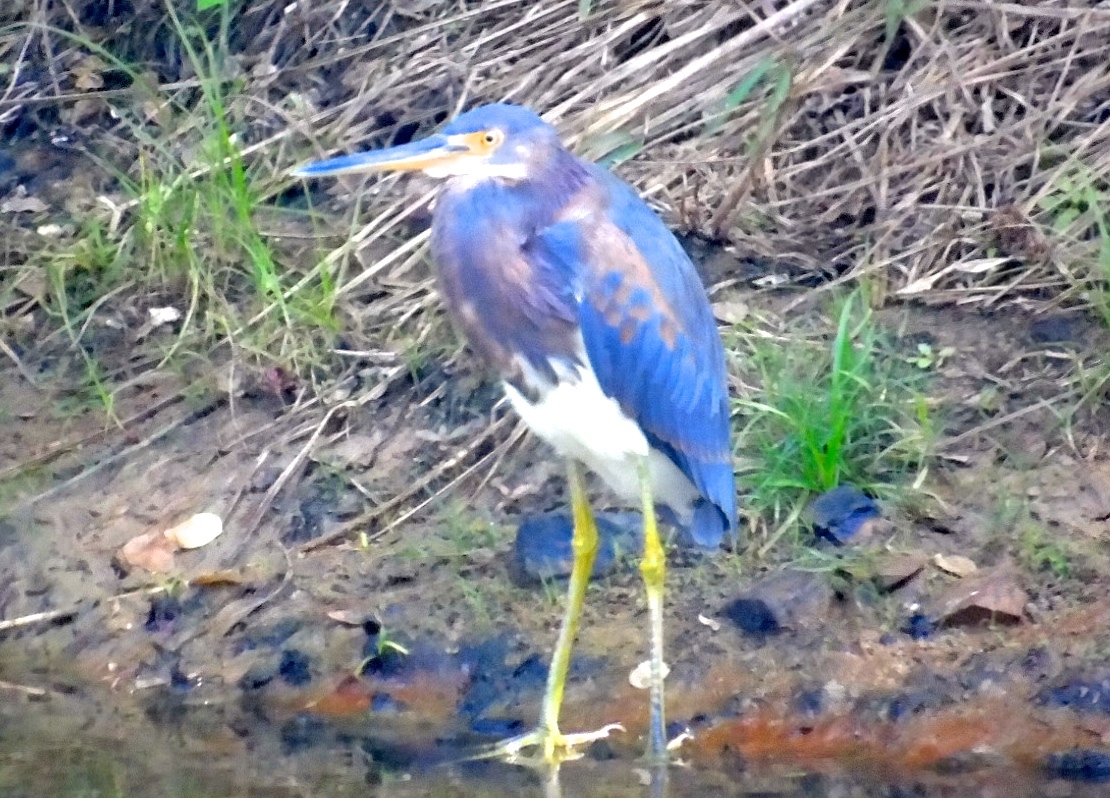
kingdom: Animalia
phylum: Chordata
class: Aves
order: Pelecaniformes
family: Ardeidae
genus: Egretta
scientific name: Egretta tricolor
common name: Tricolored heron
